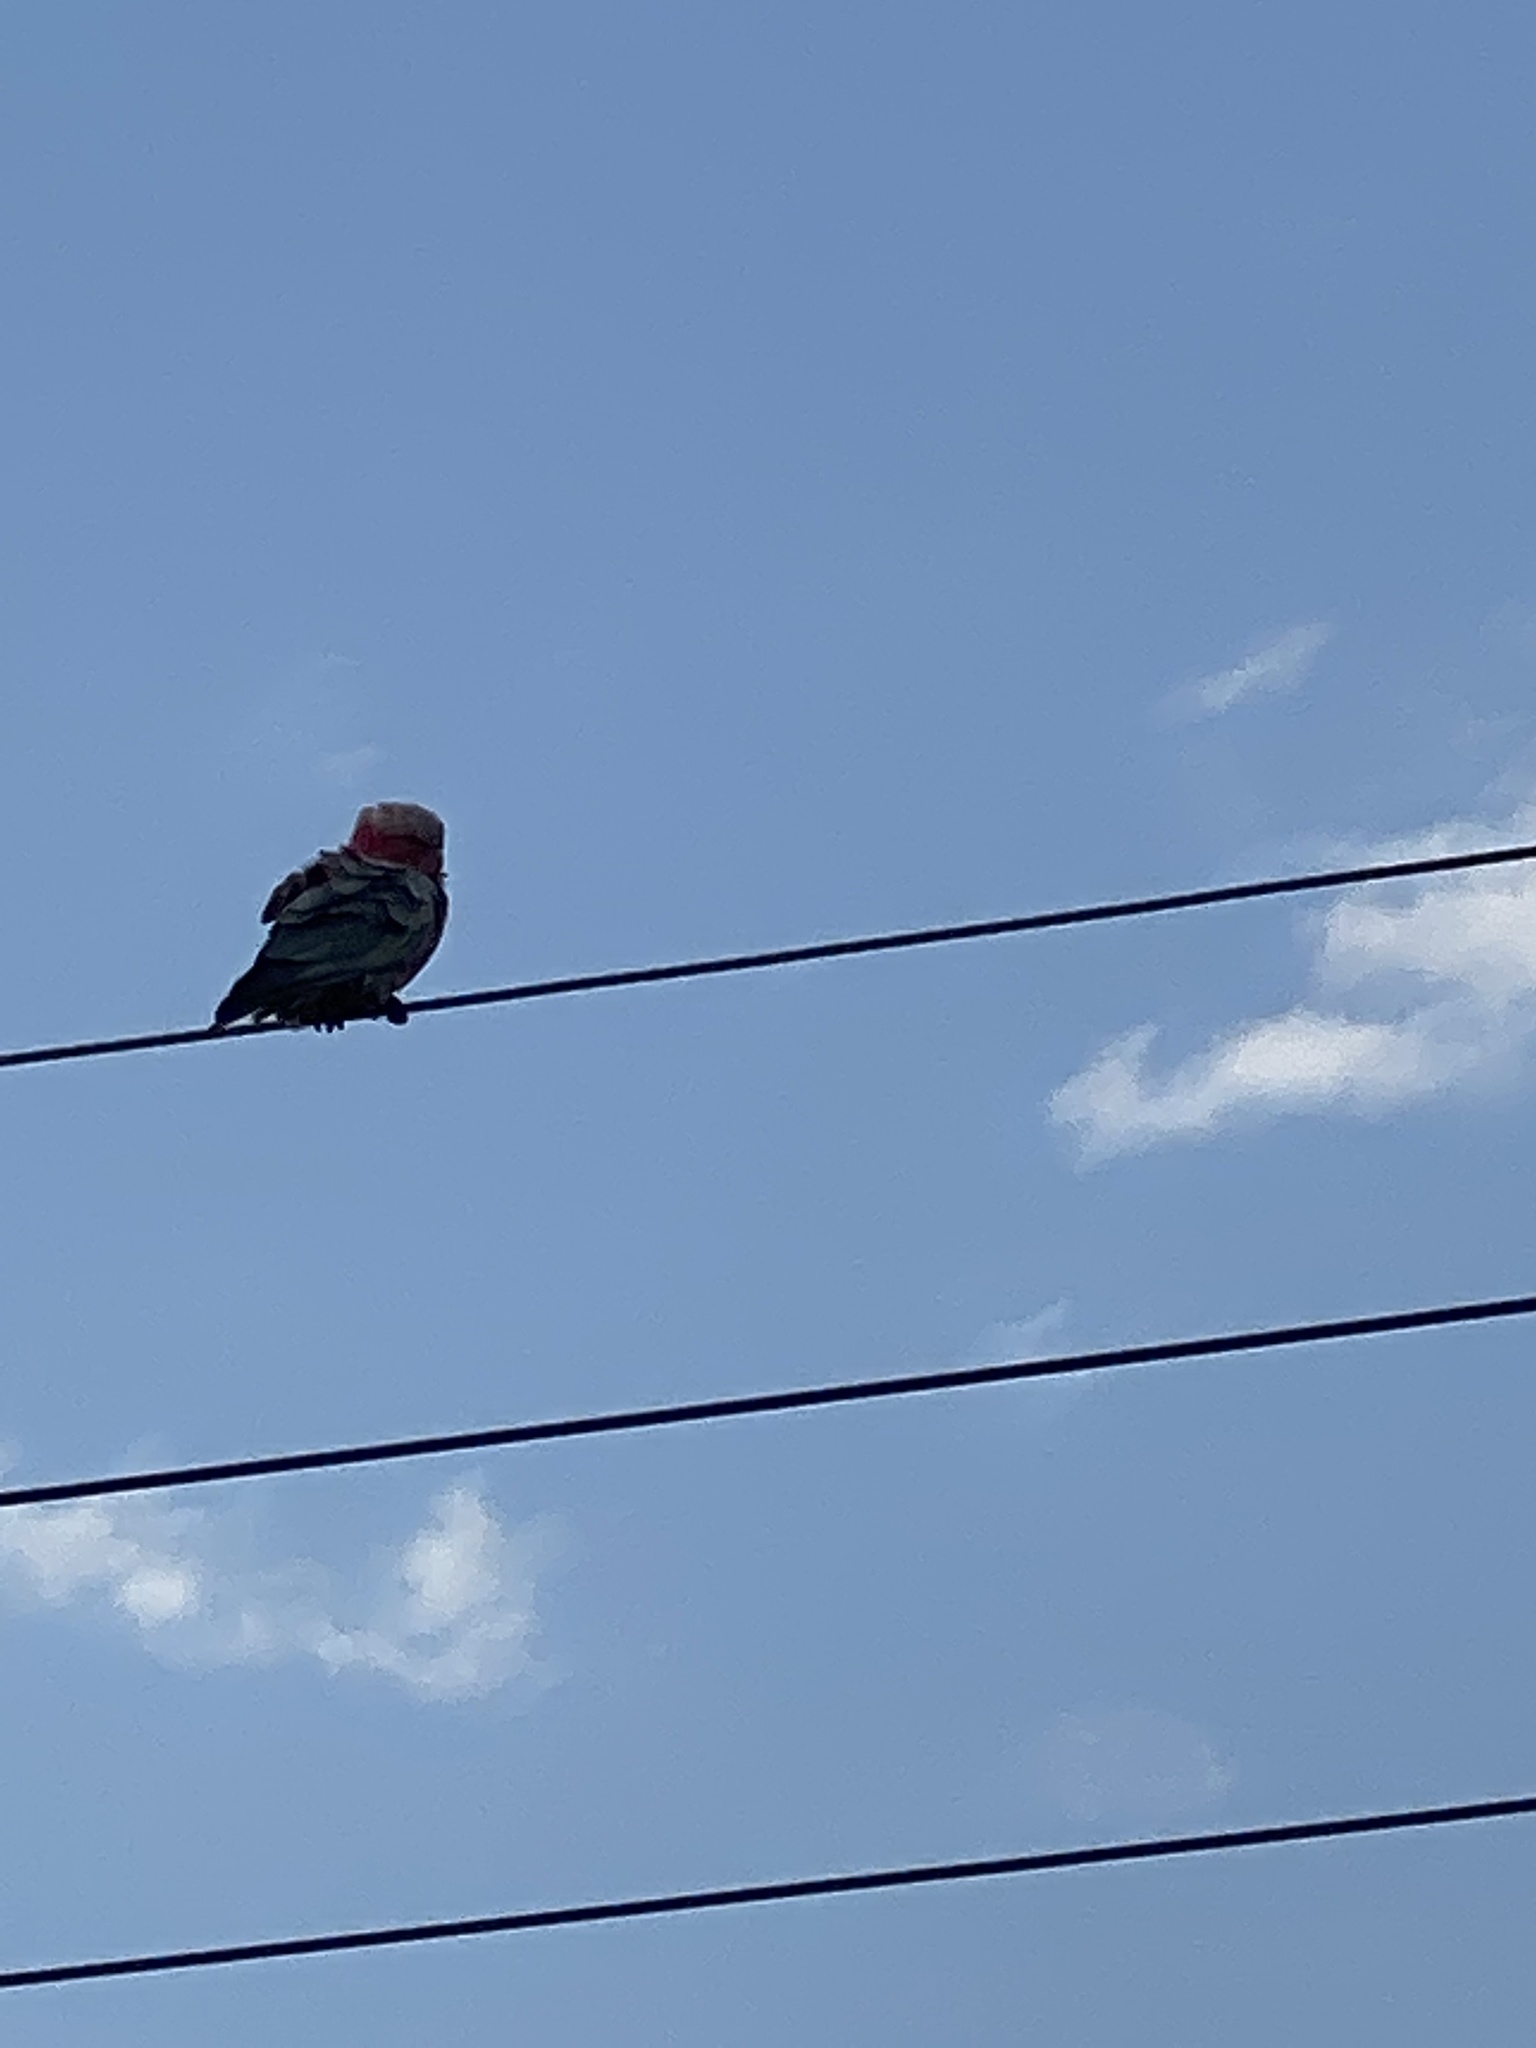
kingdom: Animalia
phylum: Chordata
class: Aves
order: Psittaciformes
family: Psittacidae
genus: Eolophus
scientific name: Eolophus roseicapilla
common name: Galah
